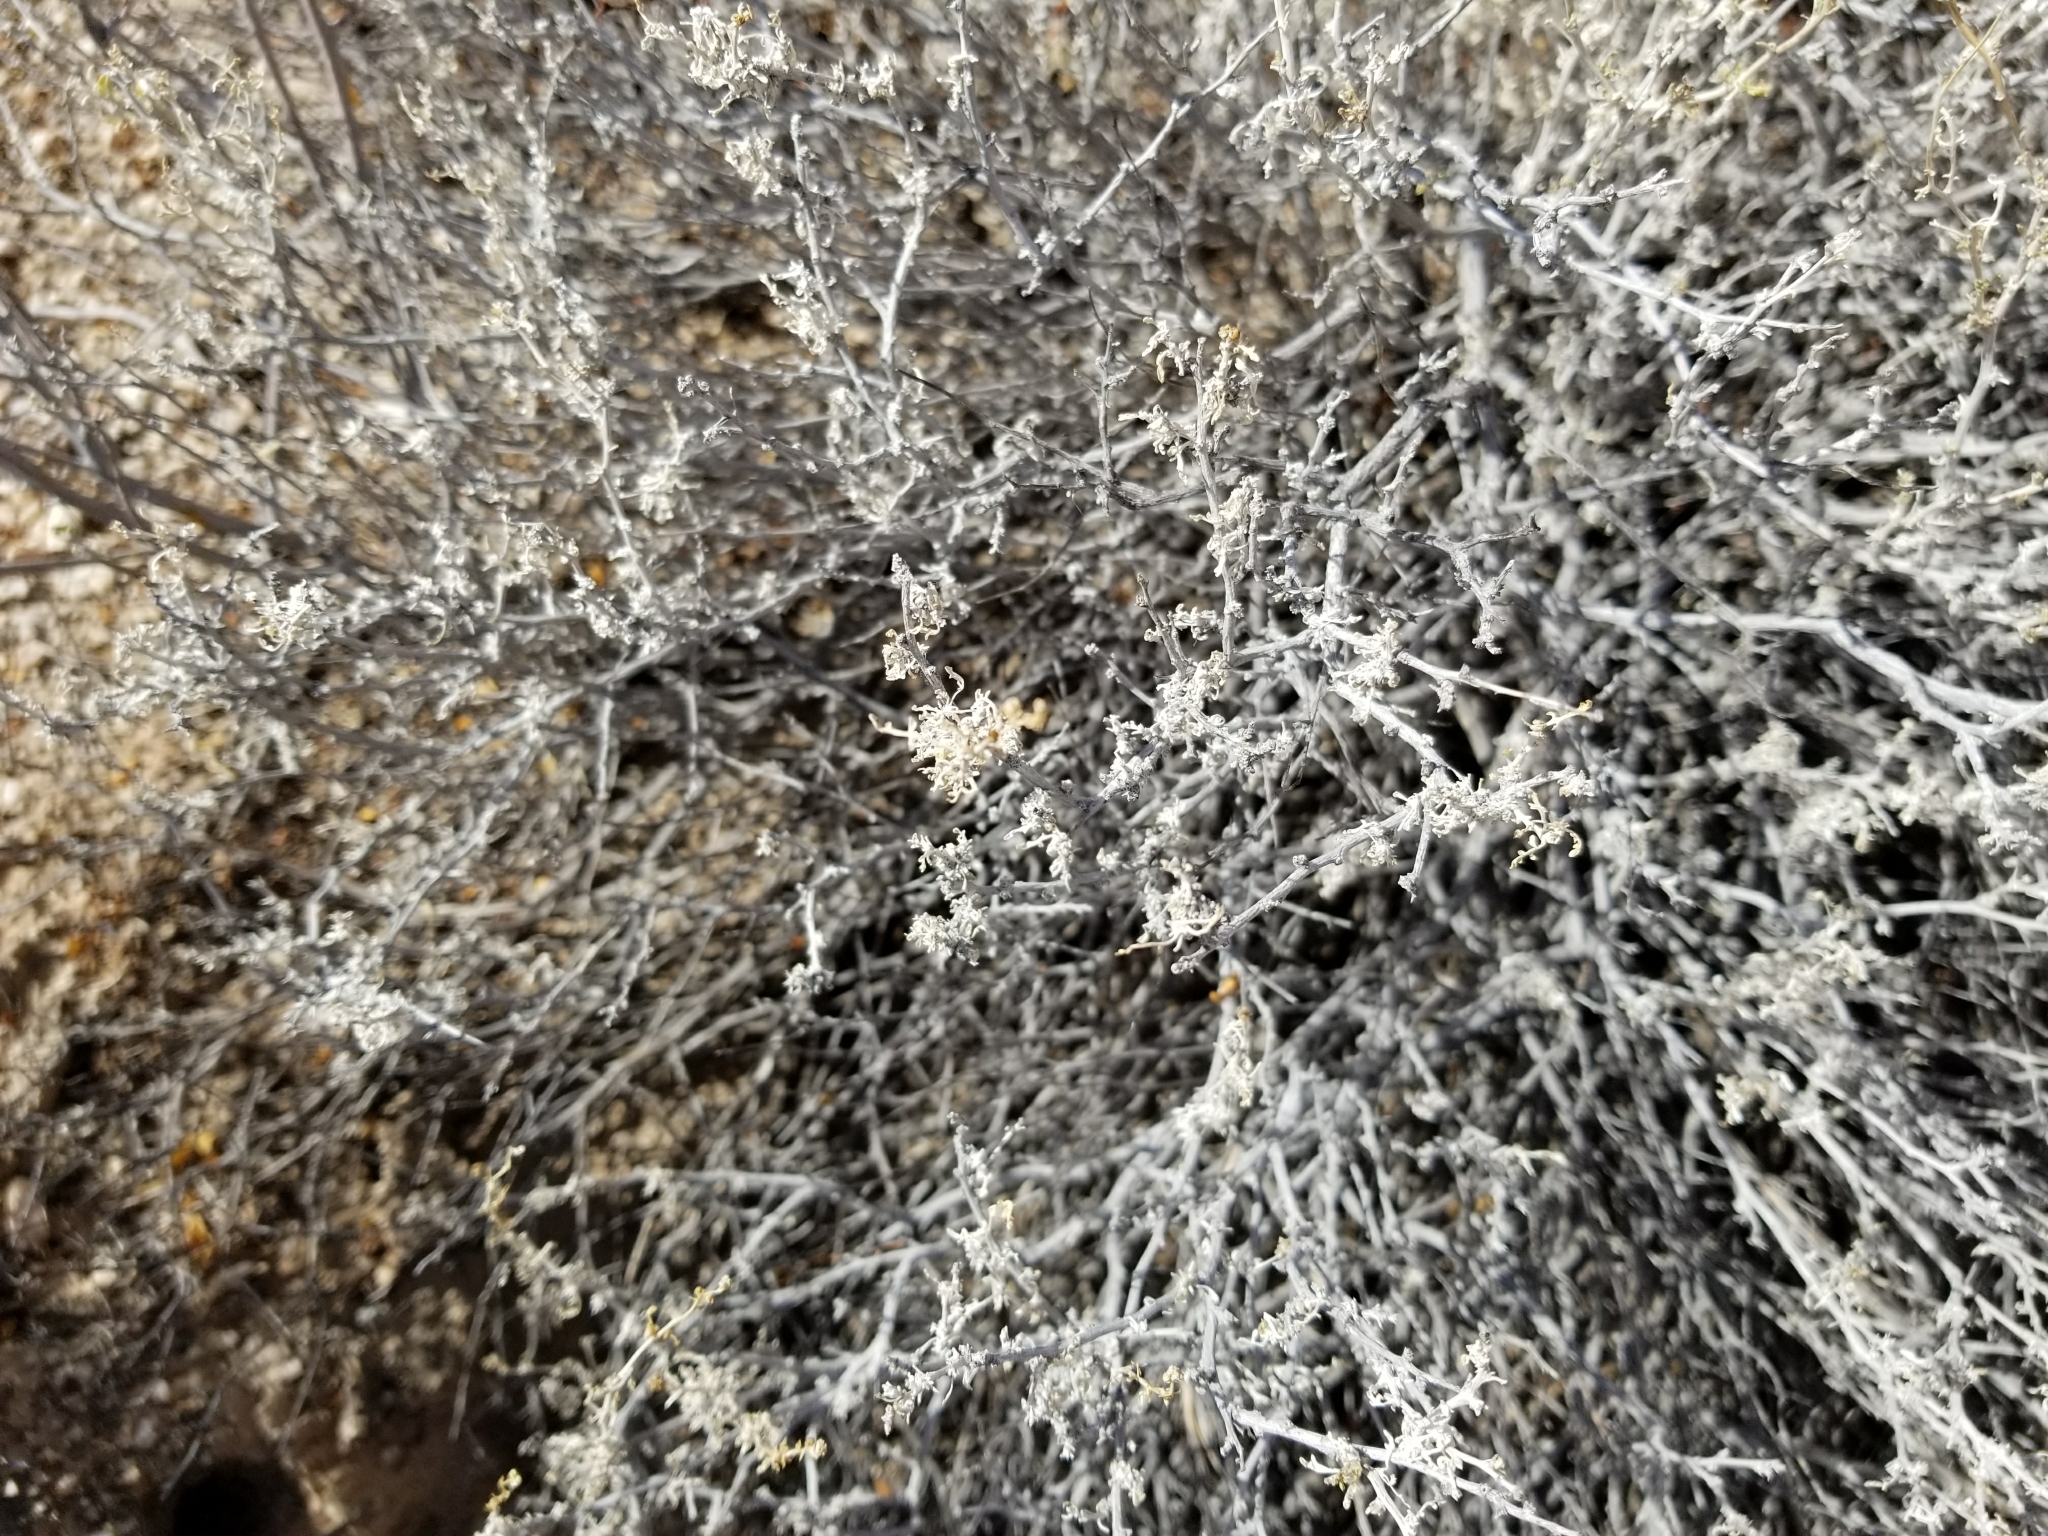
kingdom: Plantae
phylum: Tracheophyta
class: Magnoliopsida
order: Asterales
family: Asteraceae
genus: Ambrosia
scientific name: Ambrosia dumosa
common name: Bur-sage
